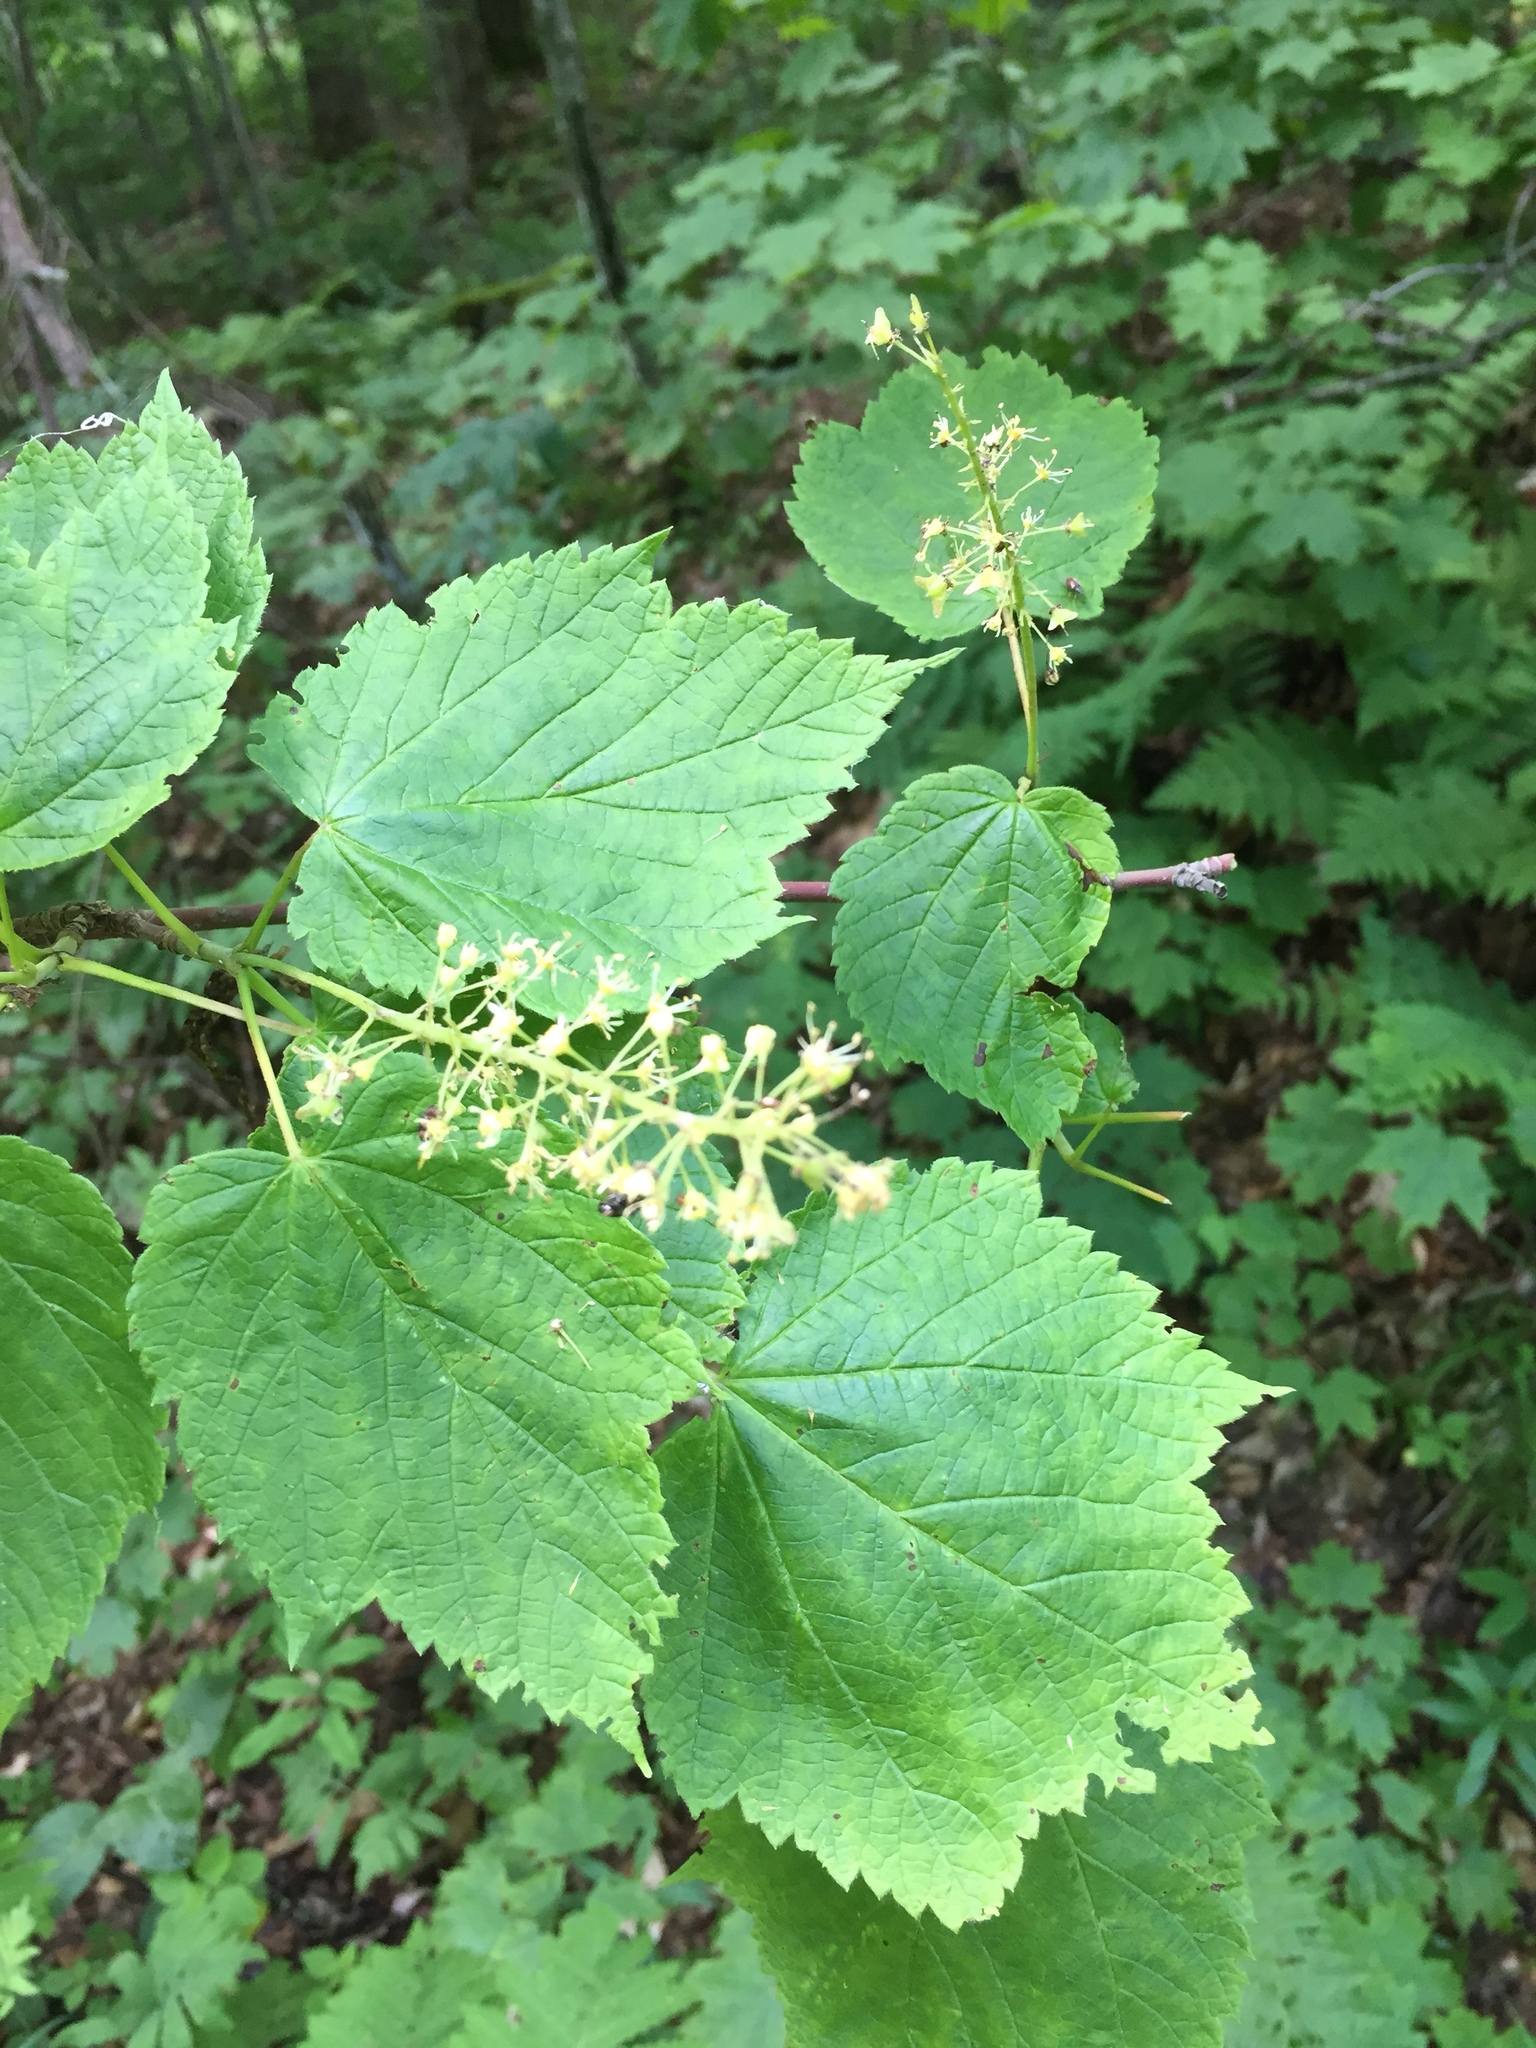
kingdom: Plantae
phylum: Tracheophyta
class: Magnoliopsida
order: Sapindales
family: Sapindaceae
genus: Acer
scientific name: Acer spicatum
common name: Mountain maple
